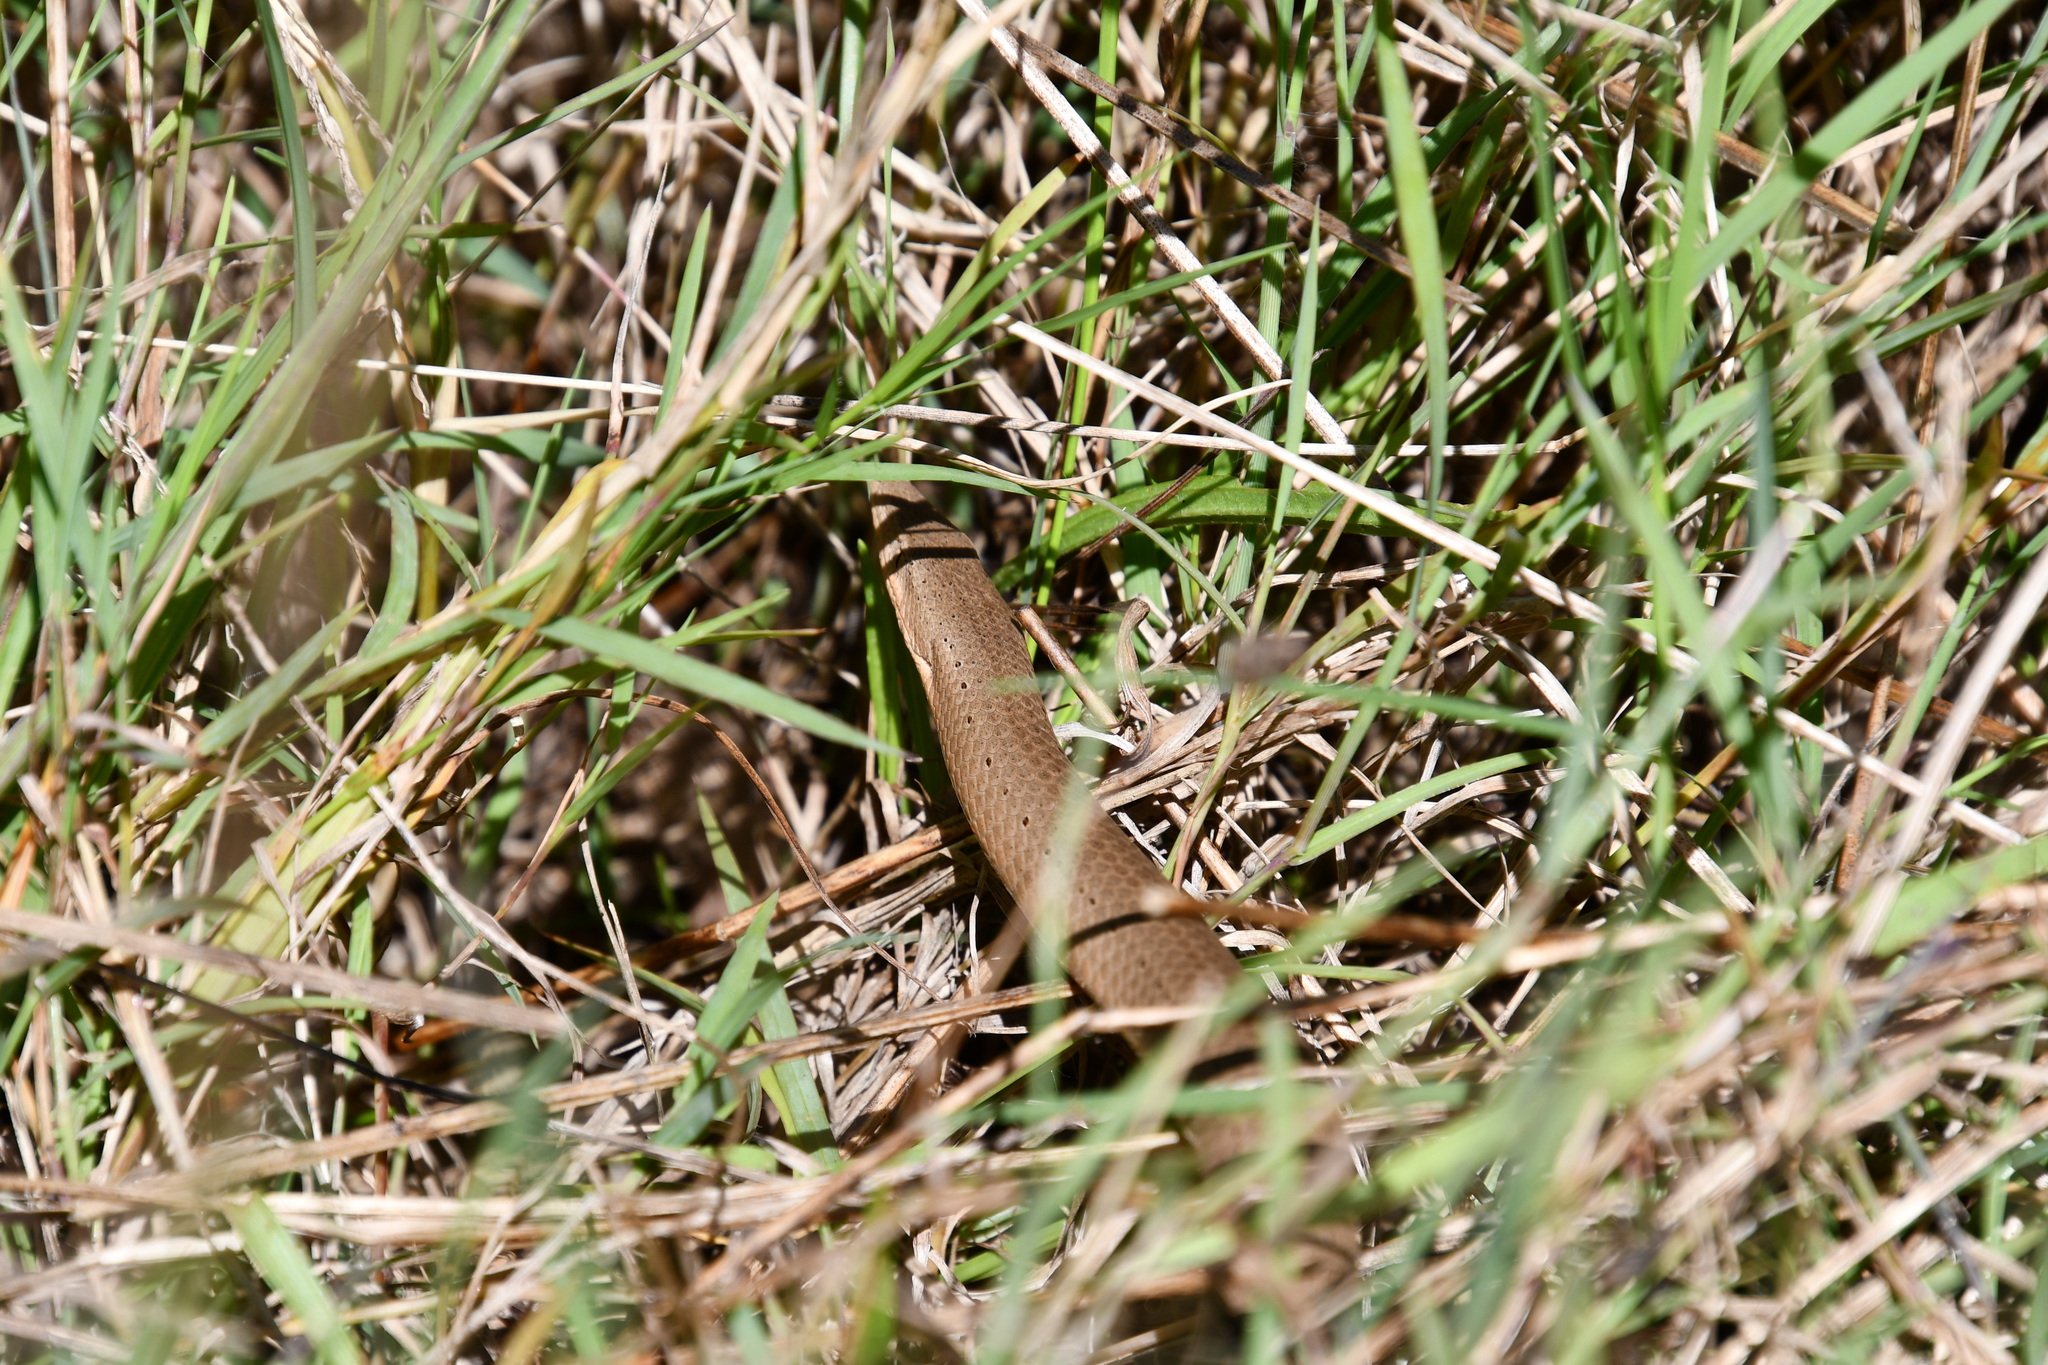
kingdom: Animalia
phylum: Chordata
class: Squamata
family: Pygopodidae
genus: Lialis
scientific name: Lialis burtonis
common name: Burton's legless lizard
